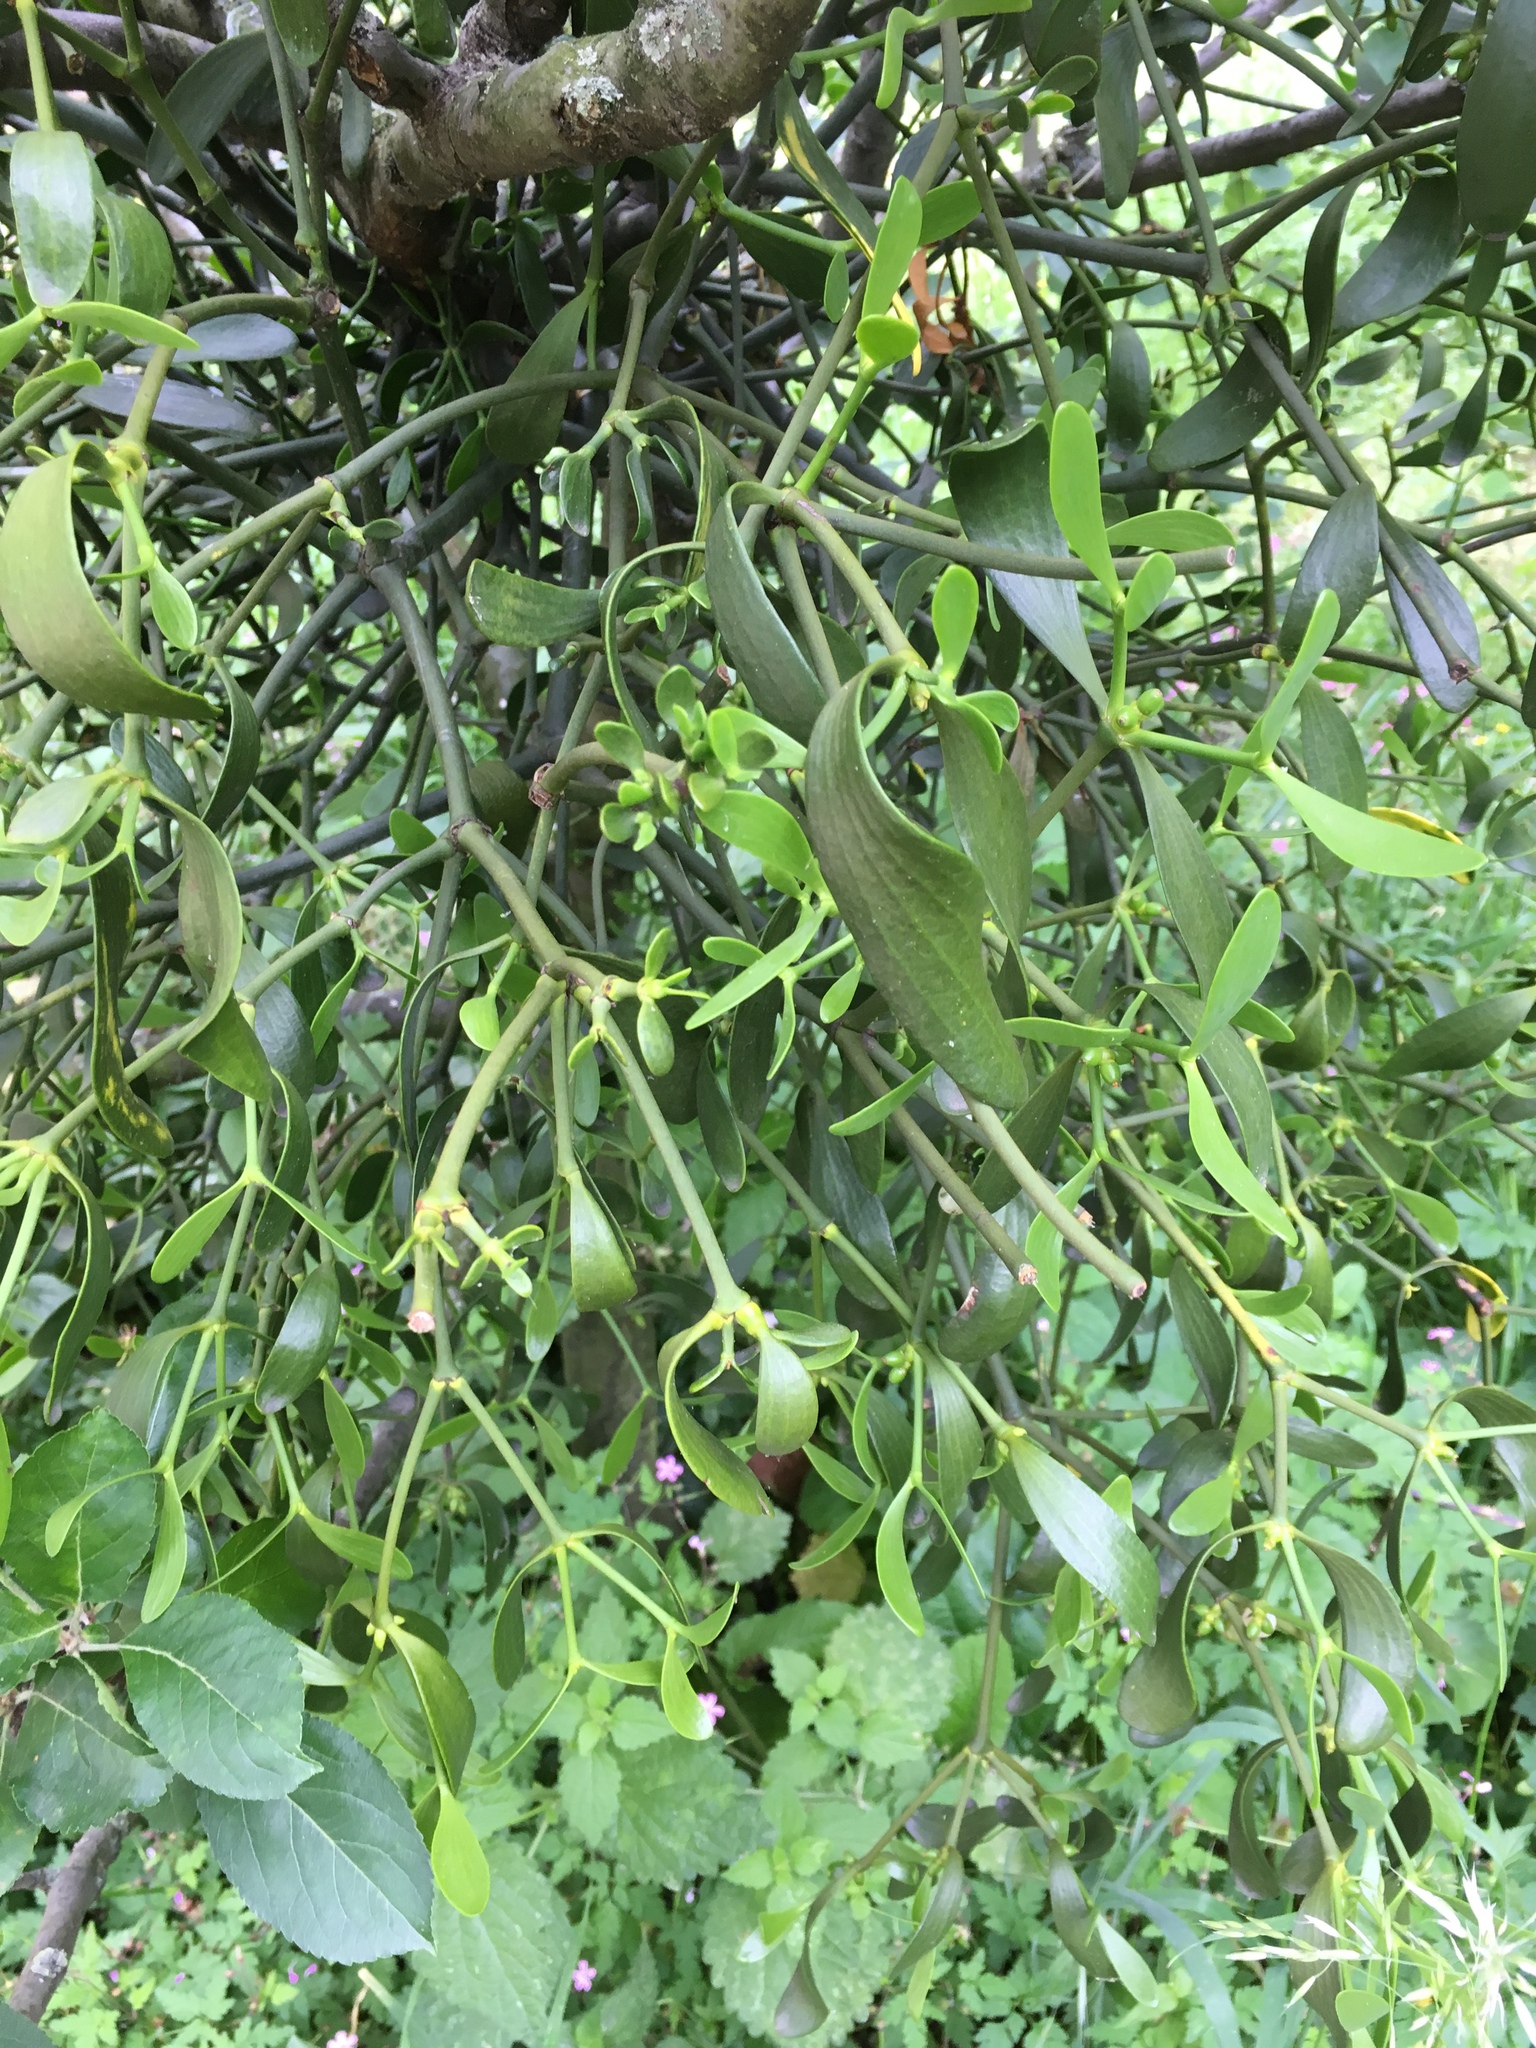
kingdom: Plantae
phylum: Tracheophyta
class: Magnoliopsida
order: Santalales
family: Viscaceae
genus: Viscum
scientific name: Viscum album
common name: Mistletoe
